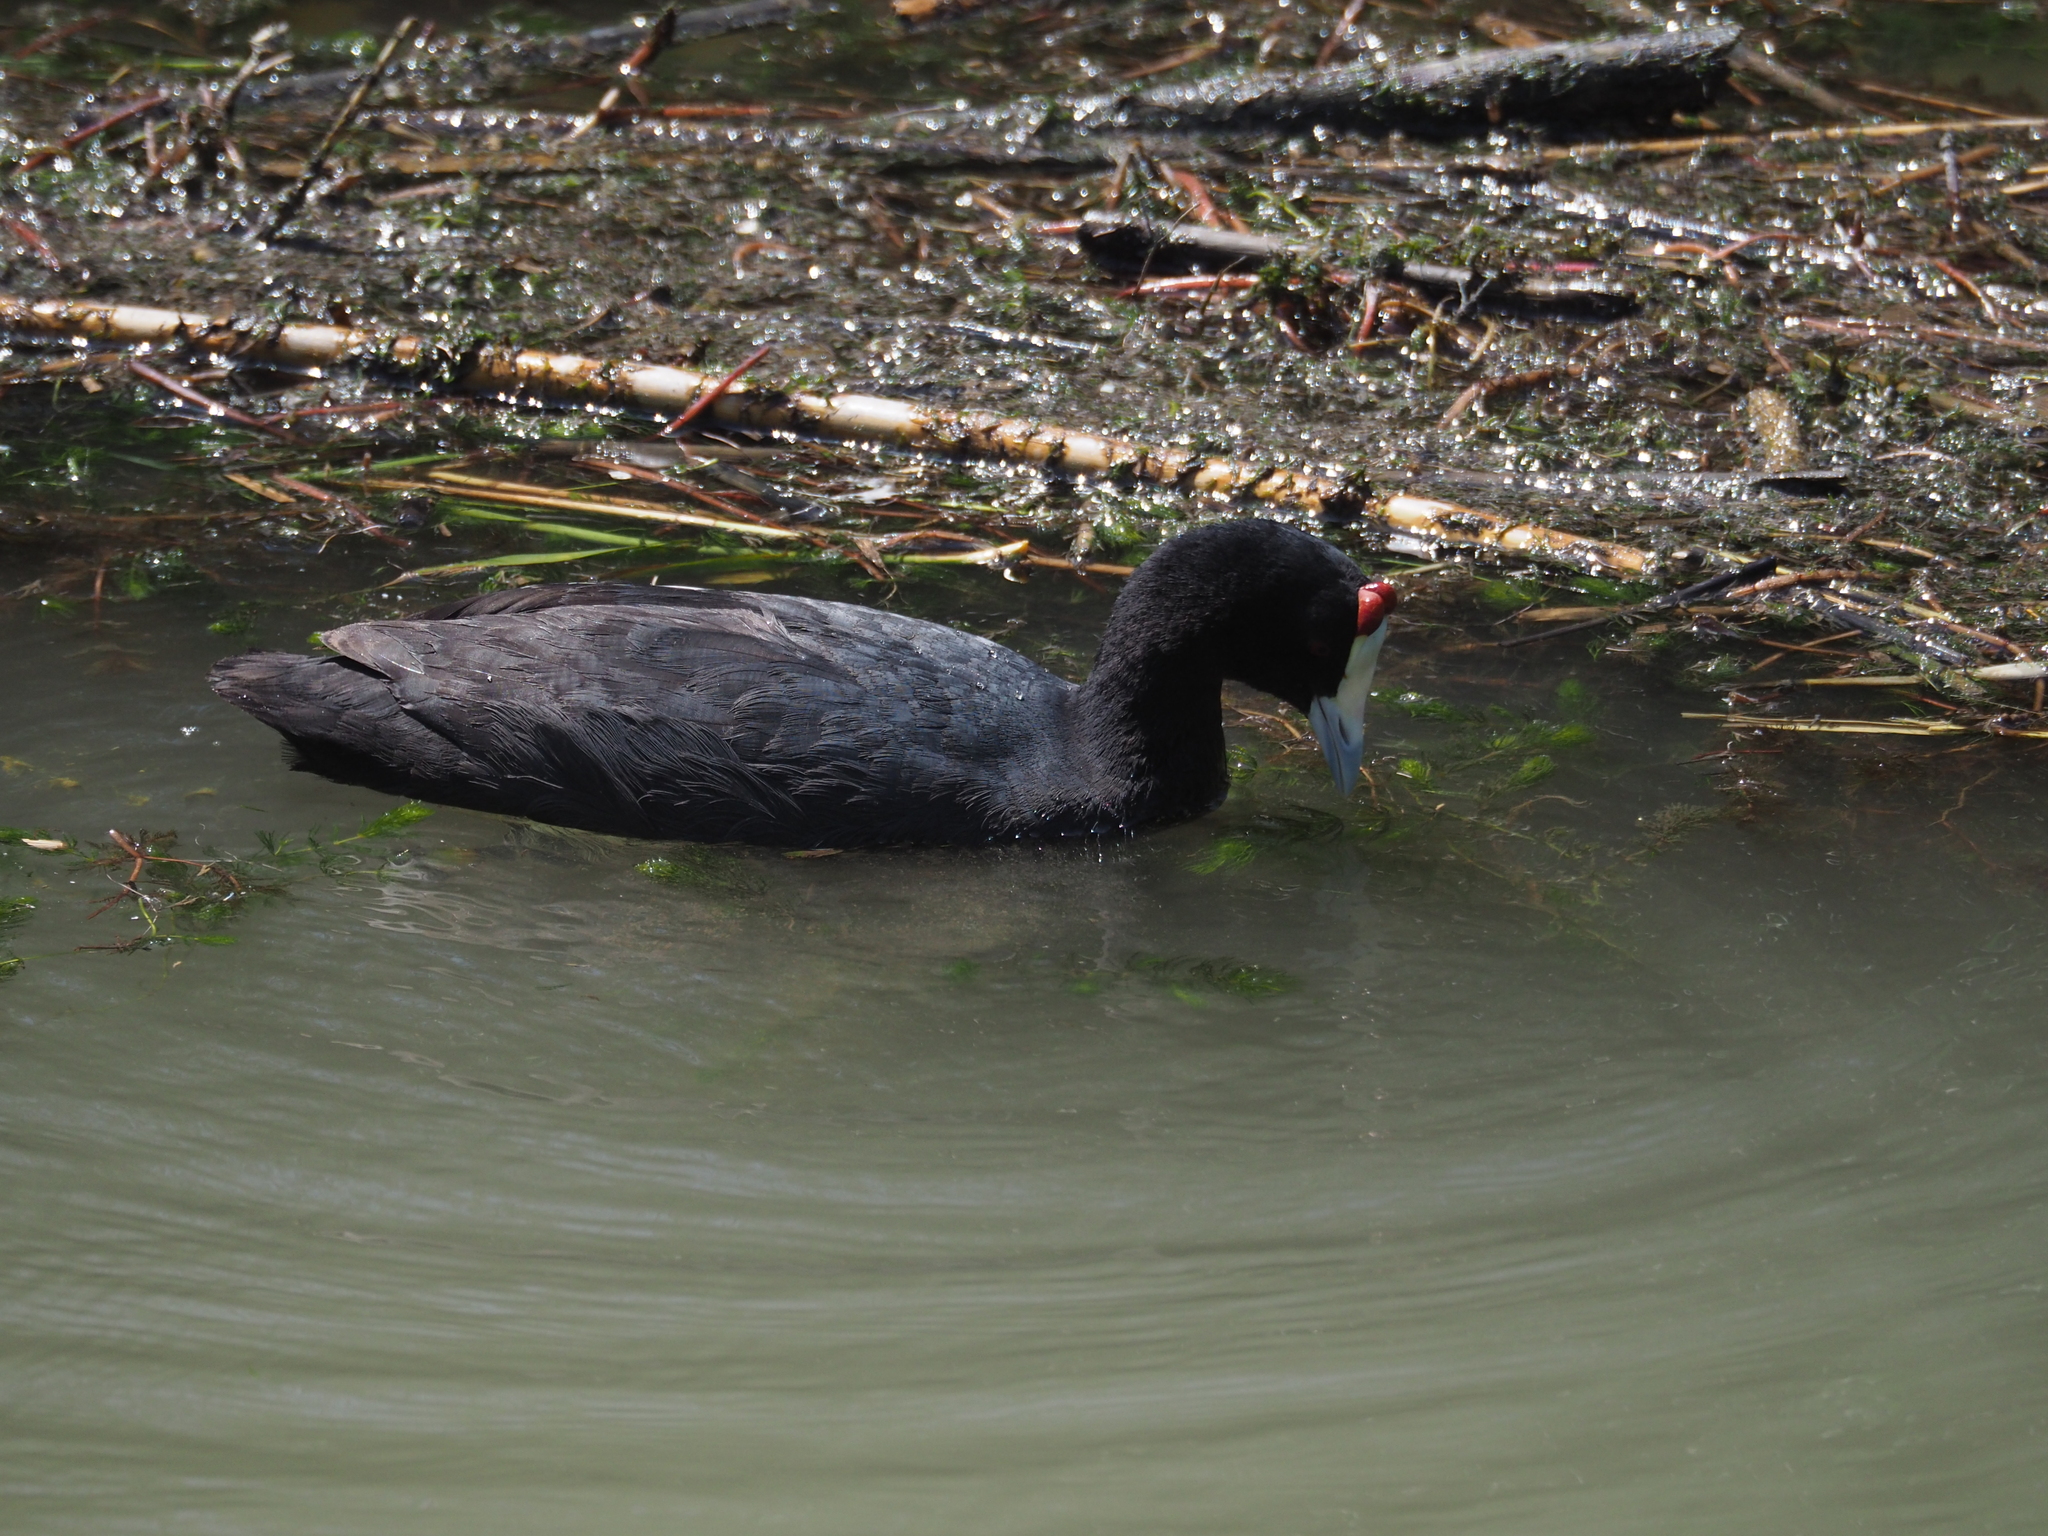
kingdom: Animalia
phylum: Chordata
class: Aves
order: Gruiformes
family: Rallidae
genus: Fulica
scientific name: Fulica cristata
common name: Red-knobbed coot
